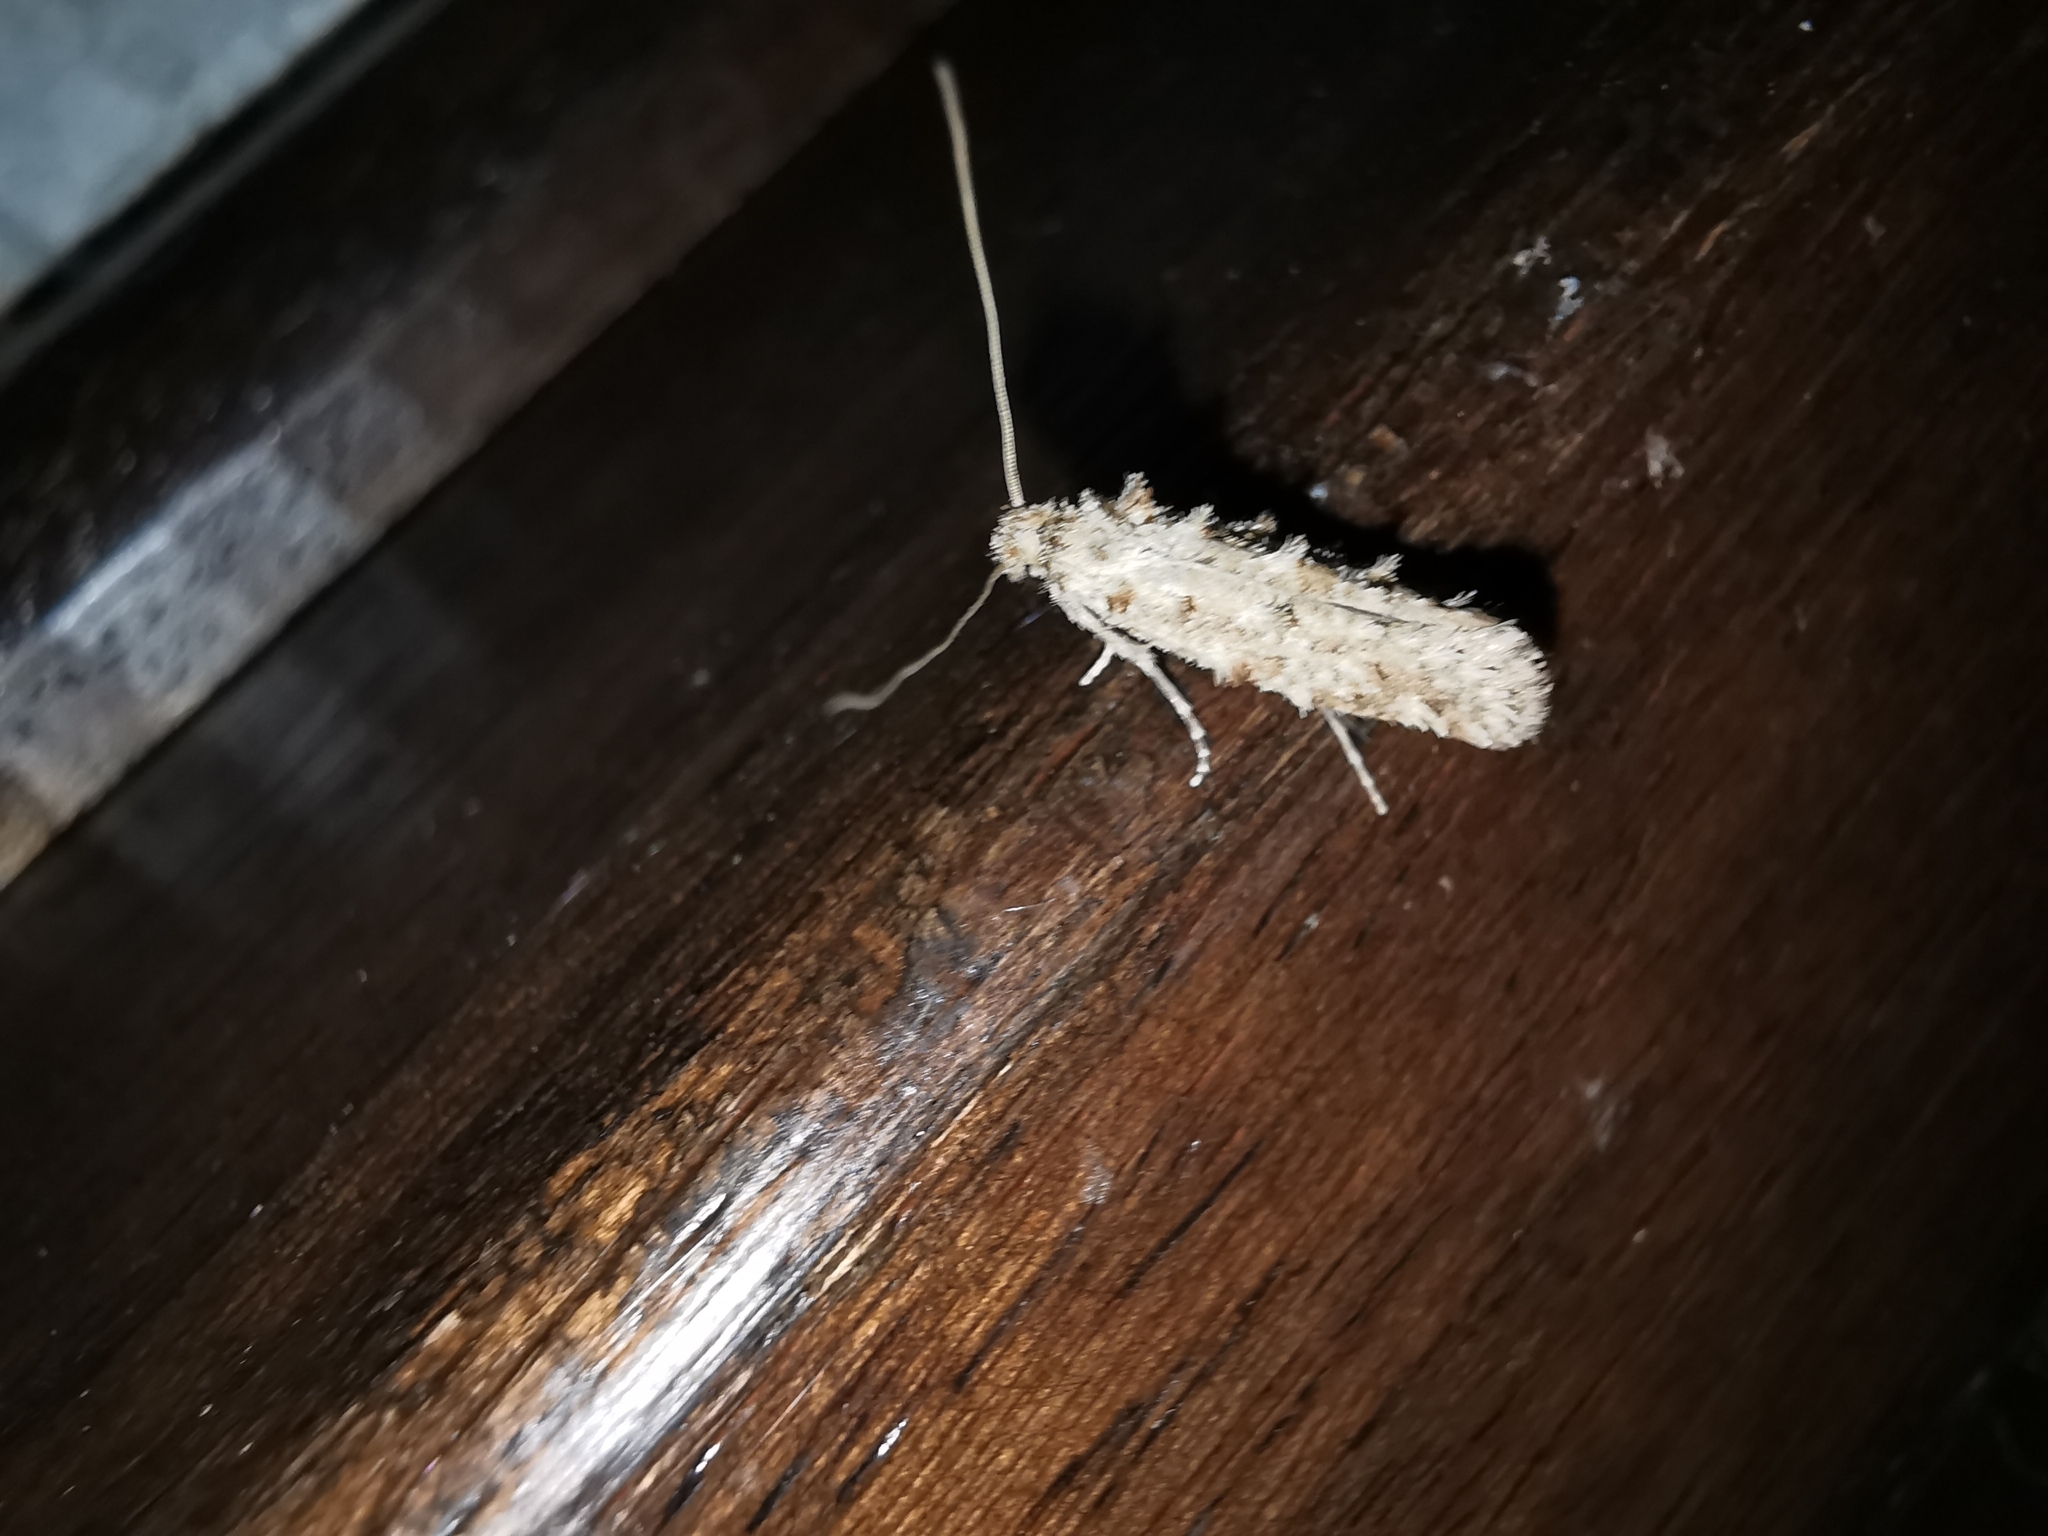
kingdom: Animalia
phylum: Arthropoda
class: Insecta
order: Lepidoptera
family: Tineidae
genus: Hapsifera
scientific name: Hapsifera luridella
